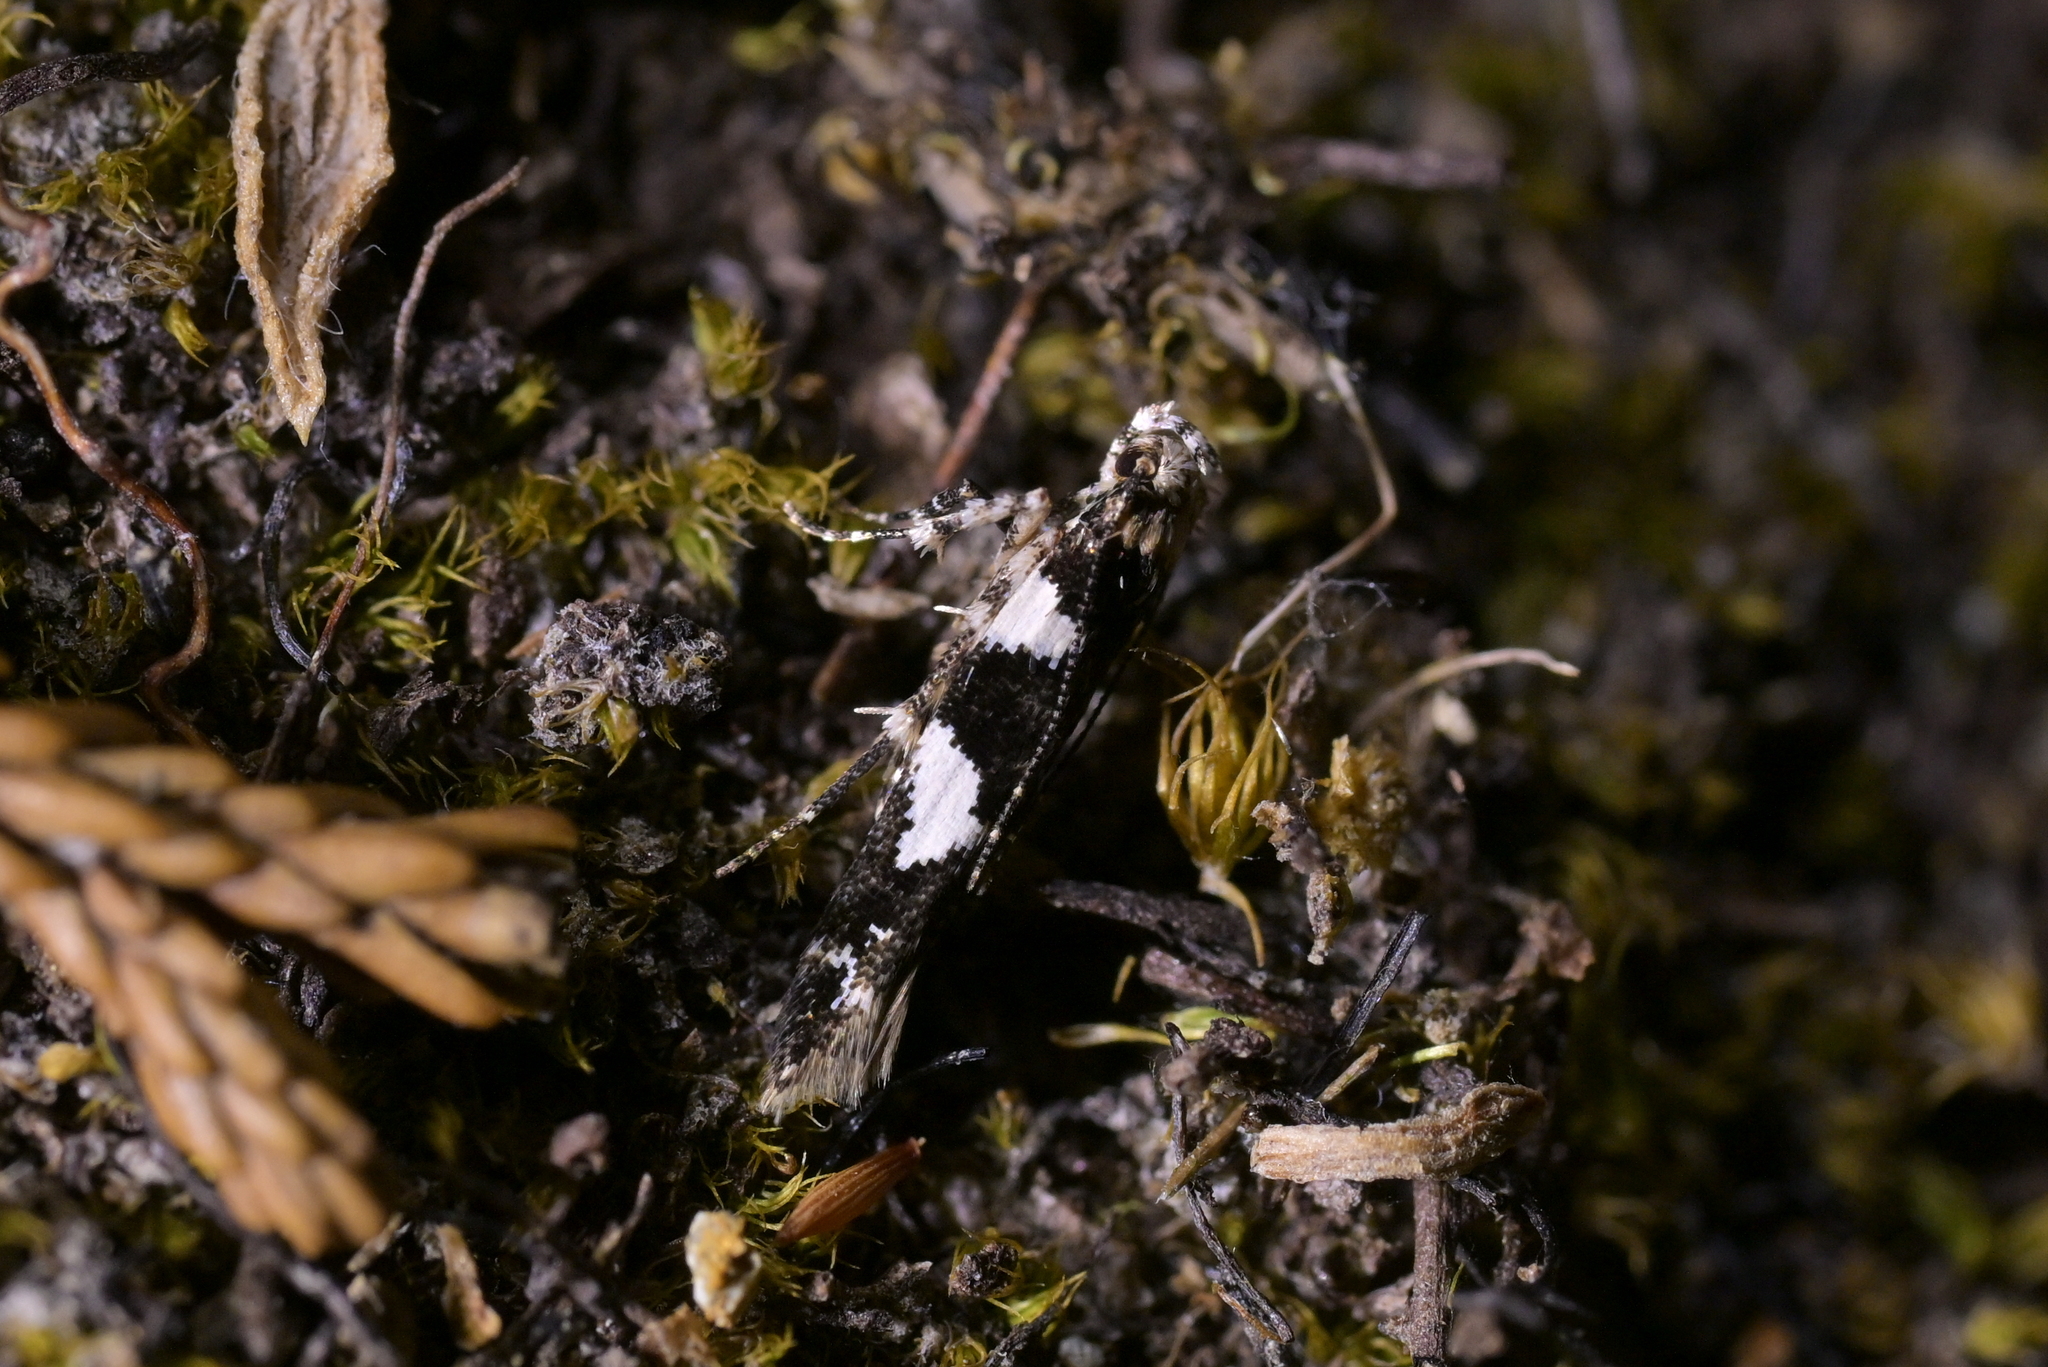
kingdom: Animalia
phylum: Arthropoda
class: Insecta
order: Lepidoptera
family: Cosmopterigidae
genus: Pyroderces
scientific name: Pyroderces deamatella
